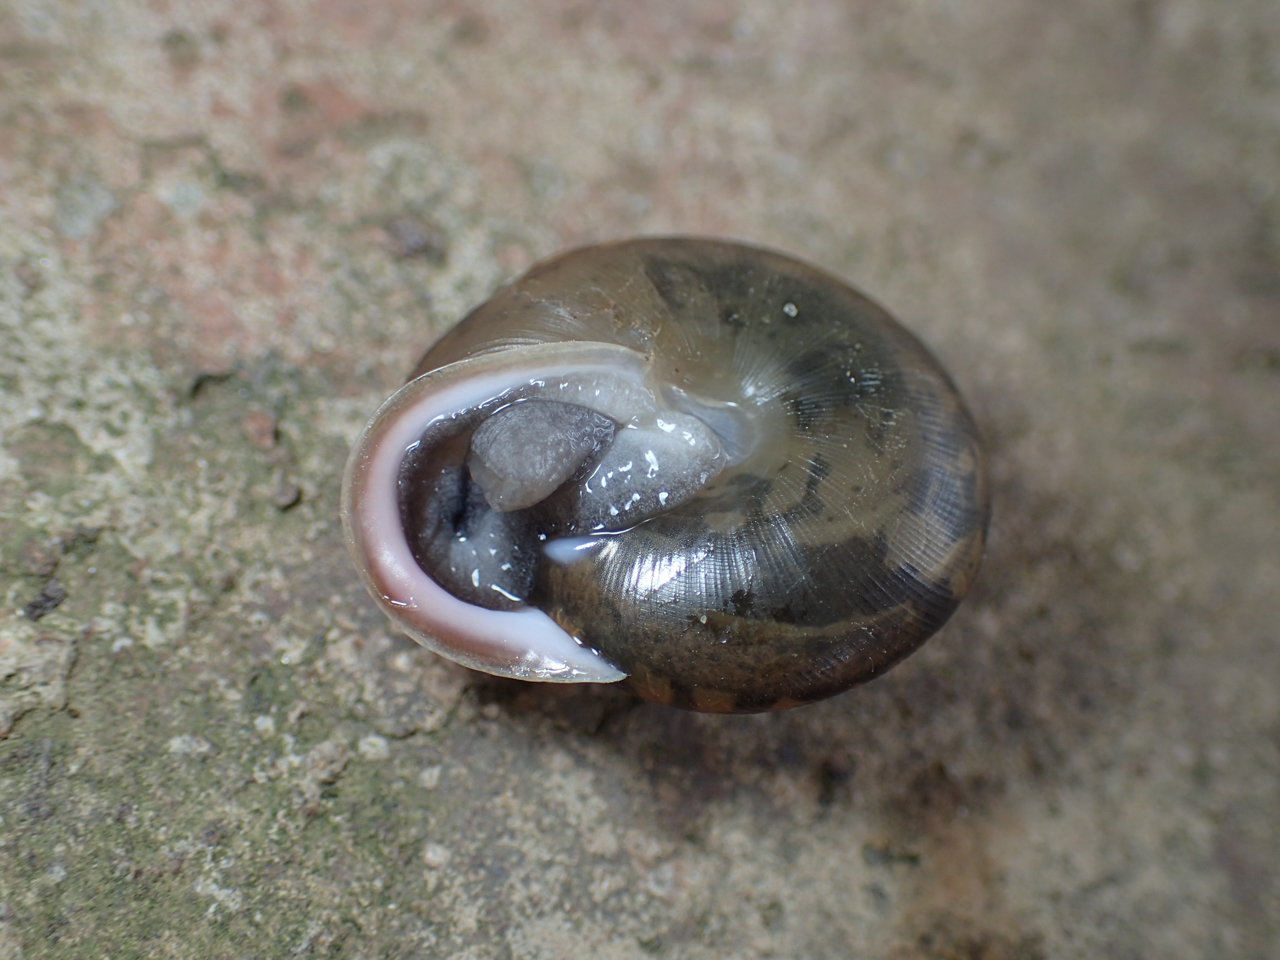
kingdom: Animalia
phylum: Mollusca
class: Gastropoda
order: Stylommatophora
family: Polygyridae
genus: Neohelix
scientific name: Neohelix dentifera
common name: Big-tooth whitelip
